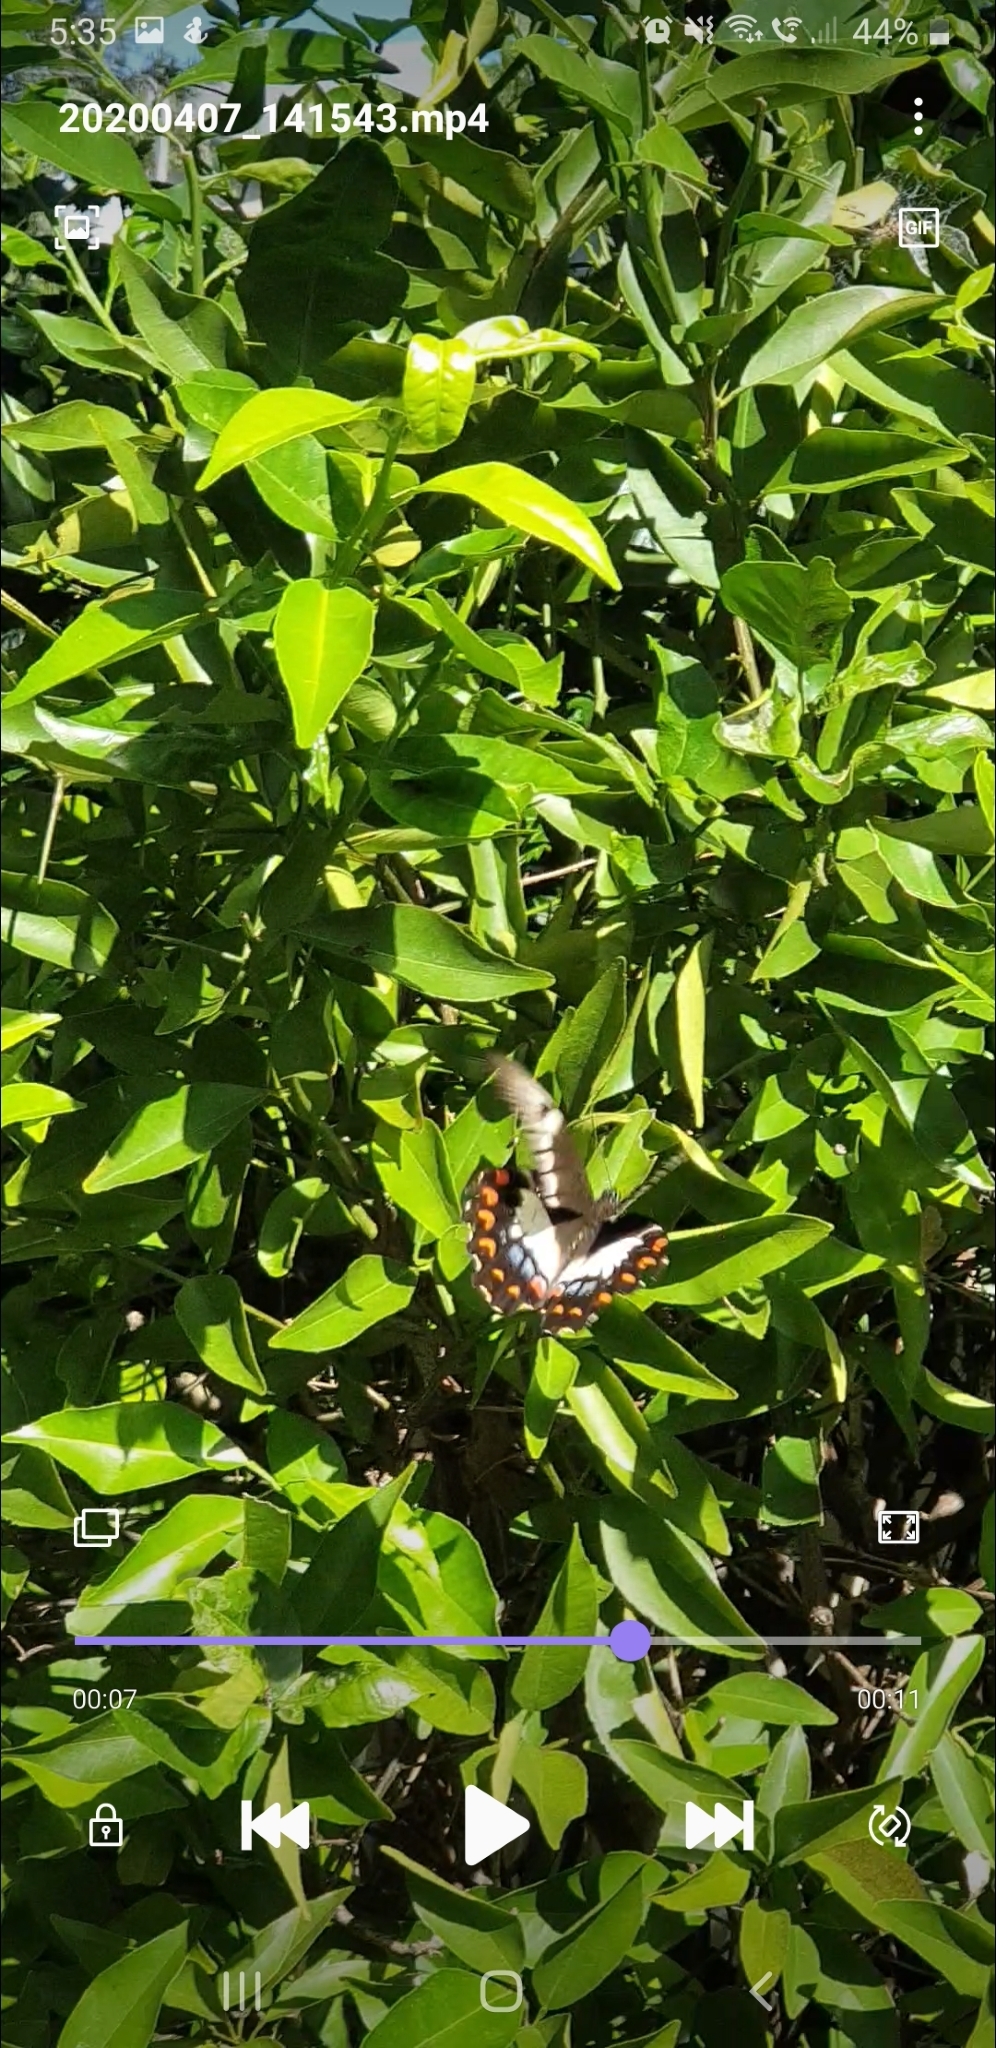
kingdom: Animalia
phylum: Arthropoda
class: Insecta
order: Lepidoptera
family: Papilionidae
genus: Papilio
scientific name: Papilio aegeus
